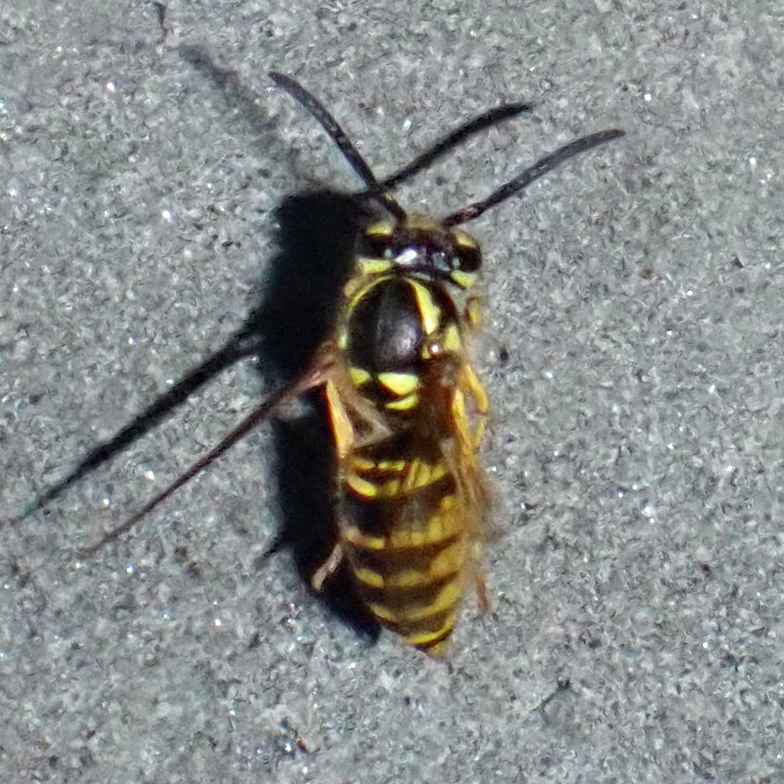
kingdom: Animalia
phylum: Arthropoda
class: Insecta
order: Hymenoptera
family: Vespidae
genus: Vespula
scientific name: Vespula maculifrons
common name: Eastern yellowjacket
